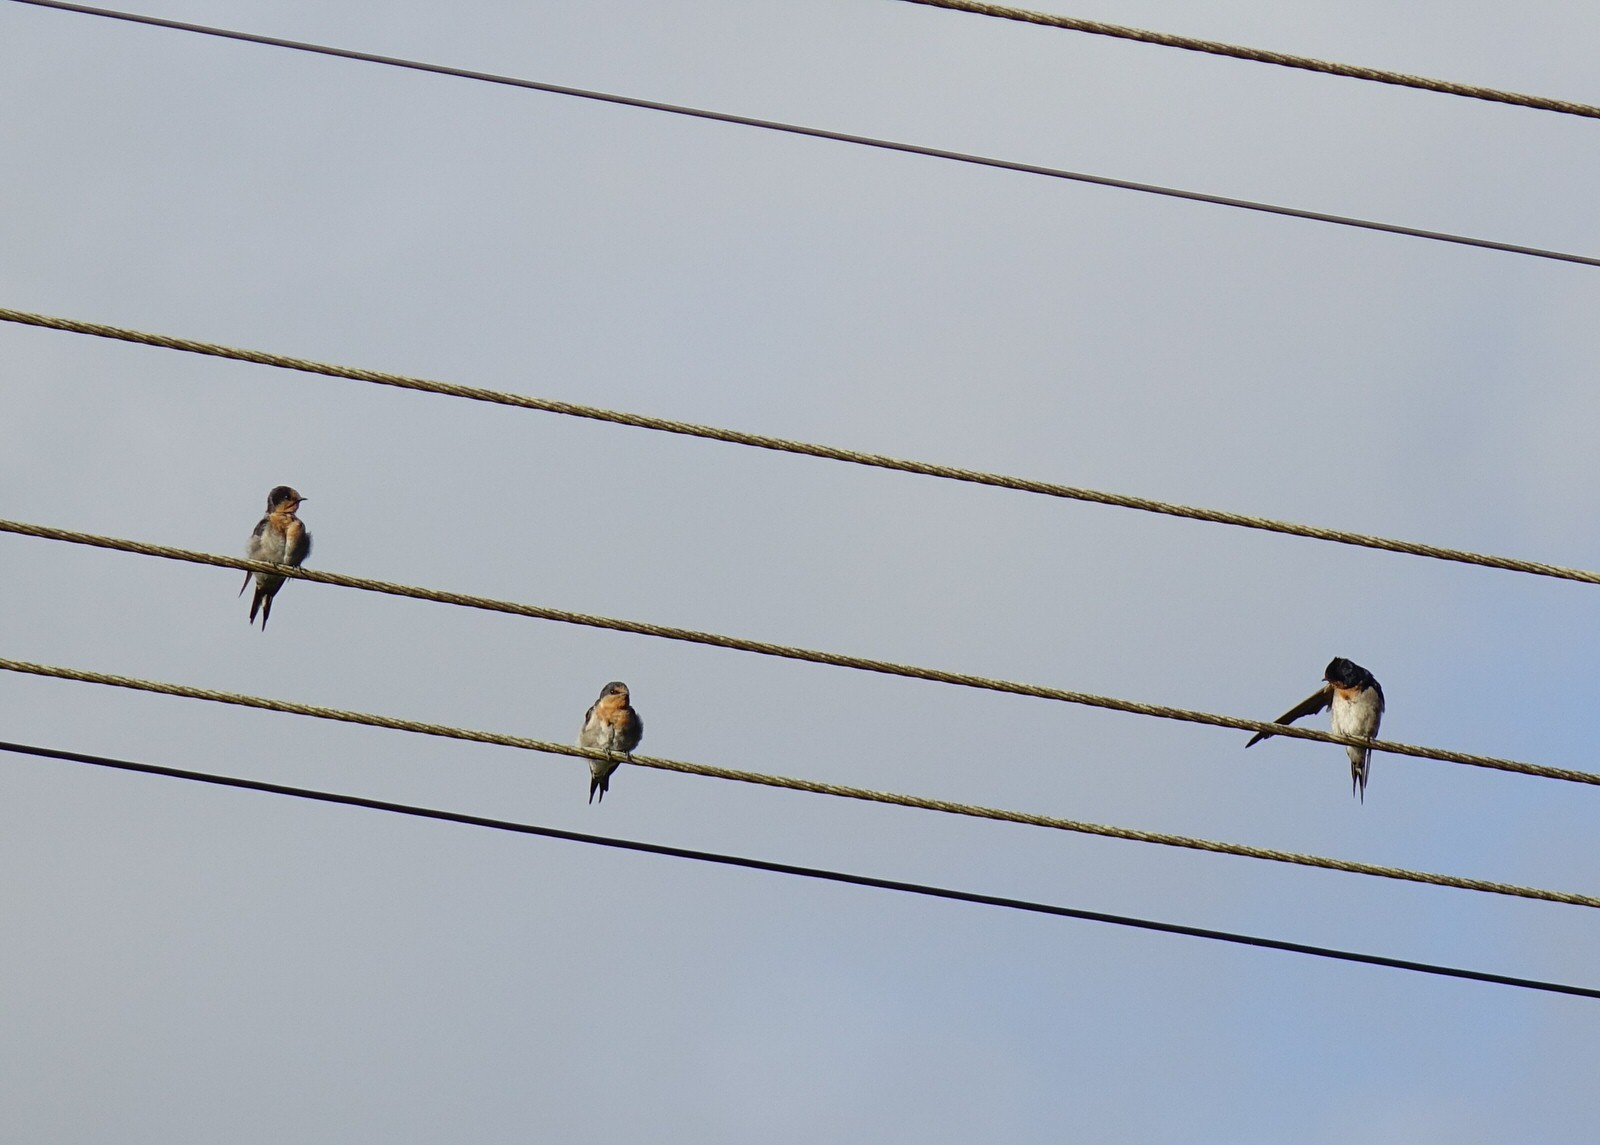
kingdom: Animalia
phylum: Chordata
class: Aves
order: Passeriformes
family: Hirundinidae
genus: Hirundo
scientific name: Hirundo neoxena
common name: Welcome swallow
